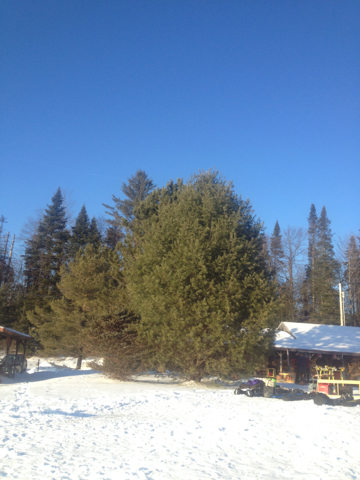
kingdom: Plantae
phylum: Tracheophyta
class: Pinopsida
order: Pinales
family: Pinaceae
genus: Pinus
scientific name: Pinus strobus
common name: Weymouth pine
